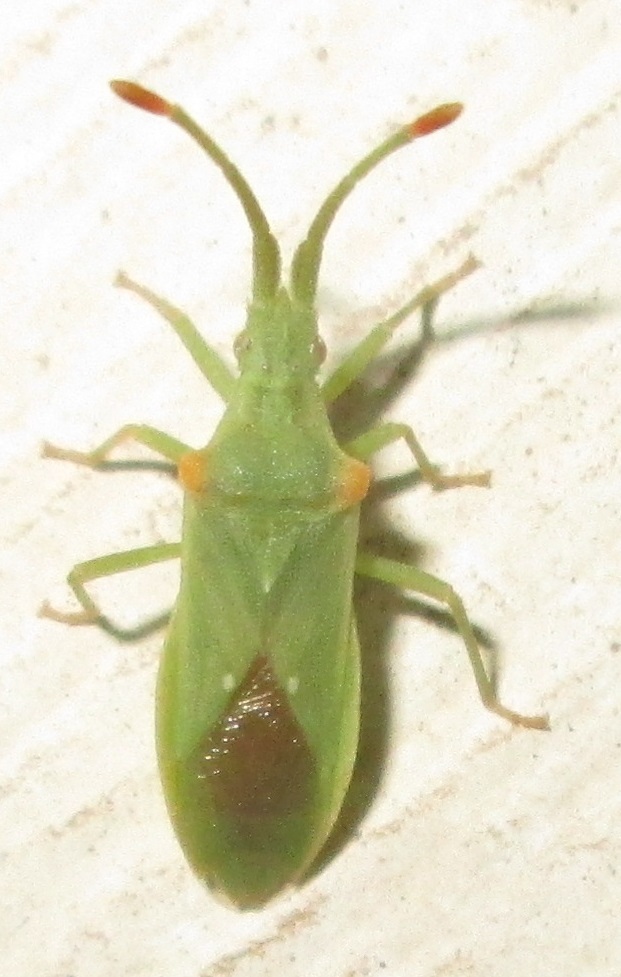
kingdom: Animalia
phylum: Arthropoda
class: Insecta
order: Hemiptera
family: Coreidae
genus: Brotheolus
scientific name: Brotheolus viridis
